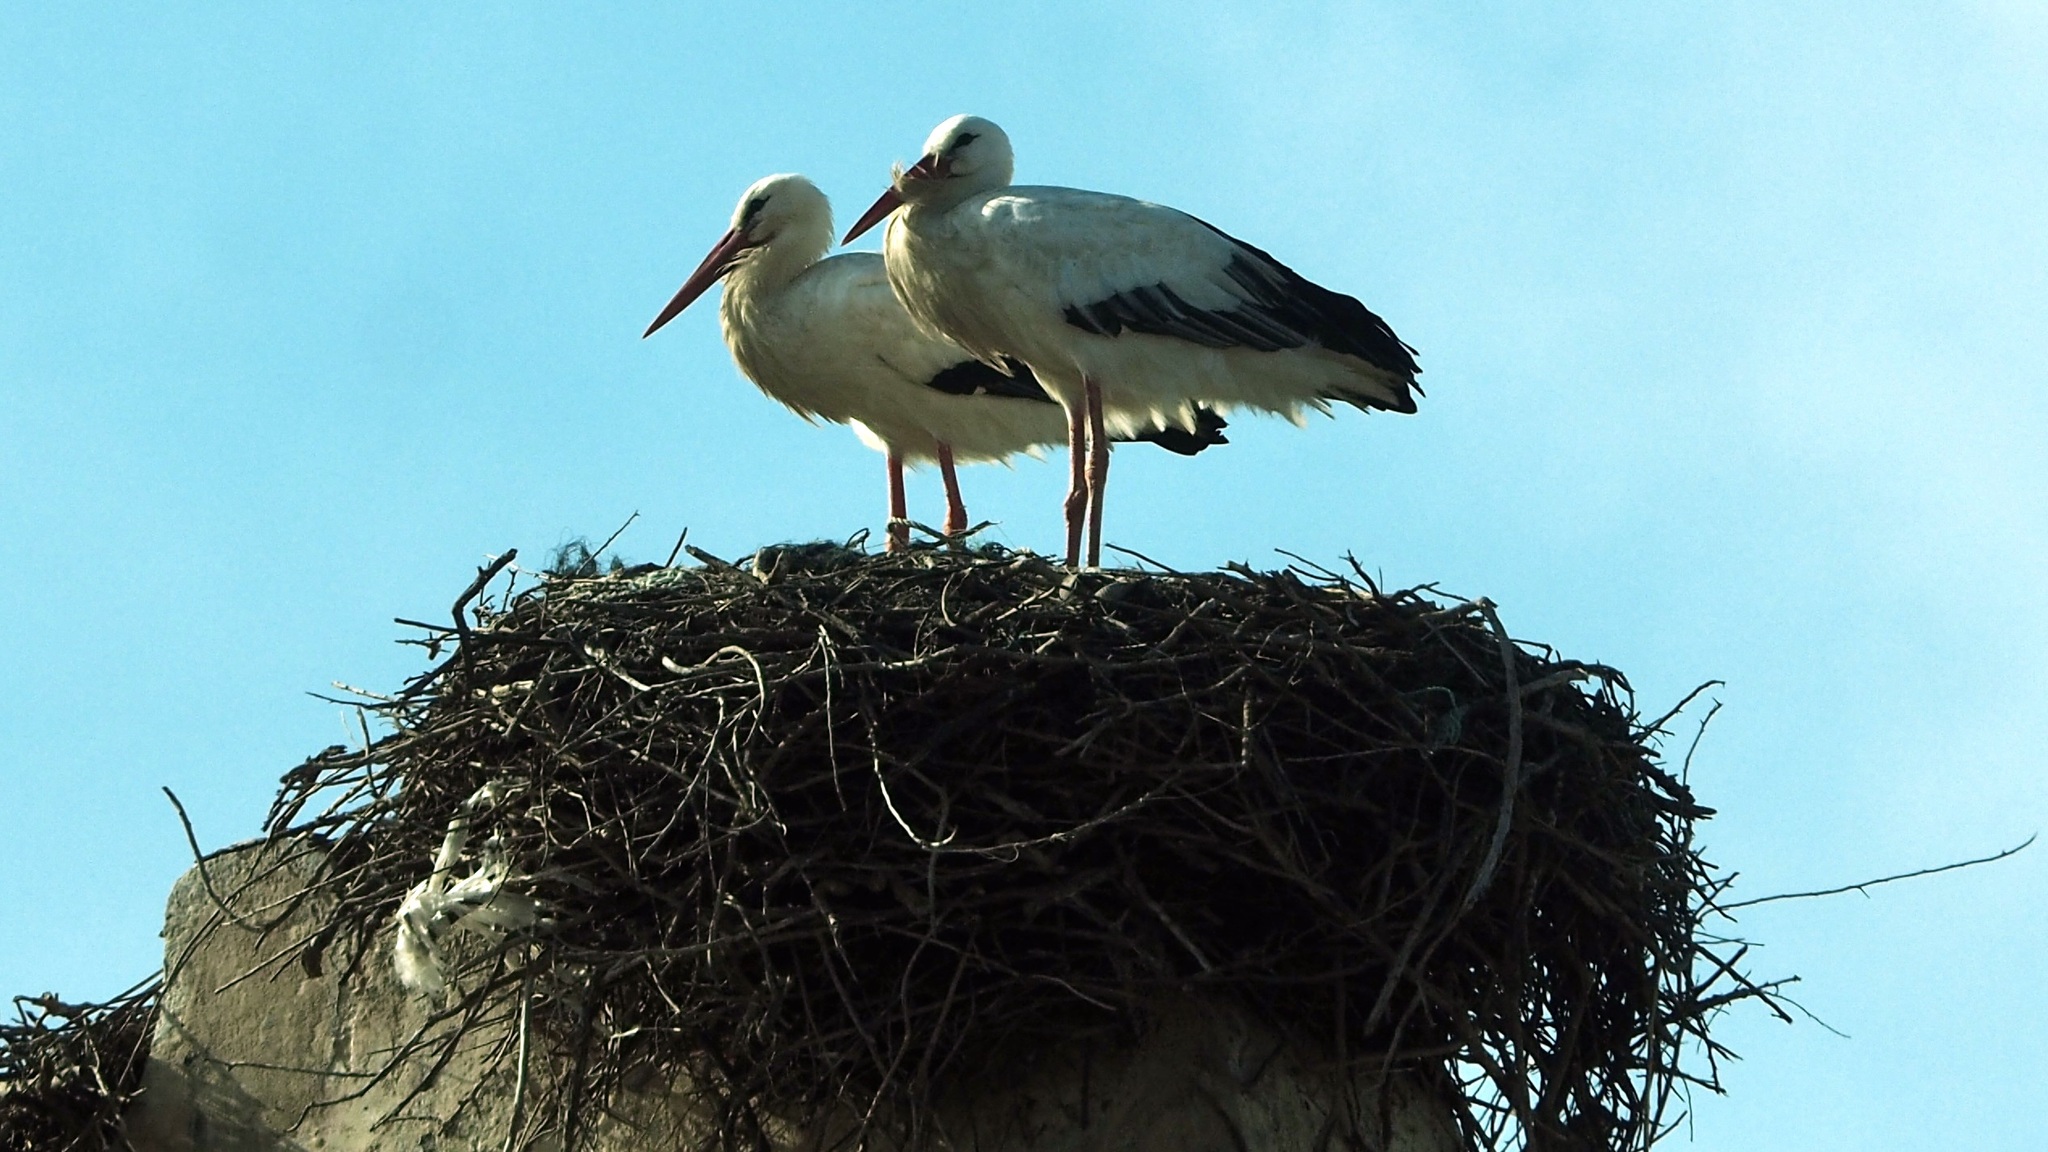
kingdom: Animalia
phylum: Chordata
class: Aves
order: Ciconiiformes
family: Ciconiidae
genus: Ciconia
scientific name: Ciconia ciconia
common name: White stork
